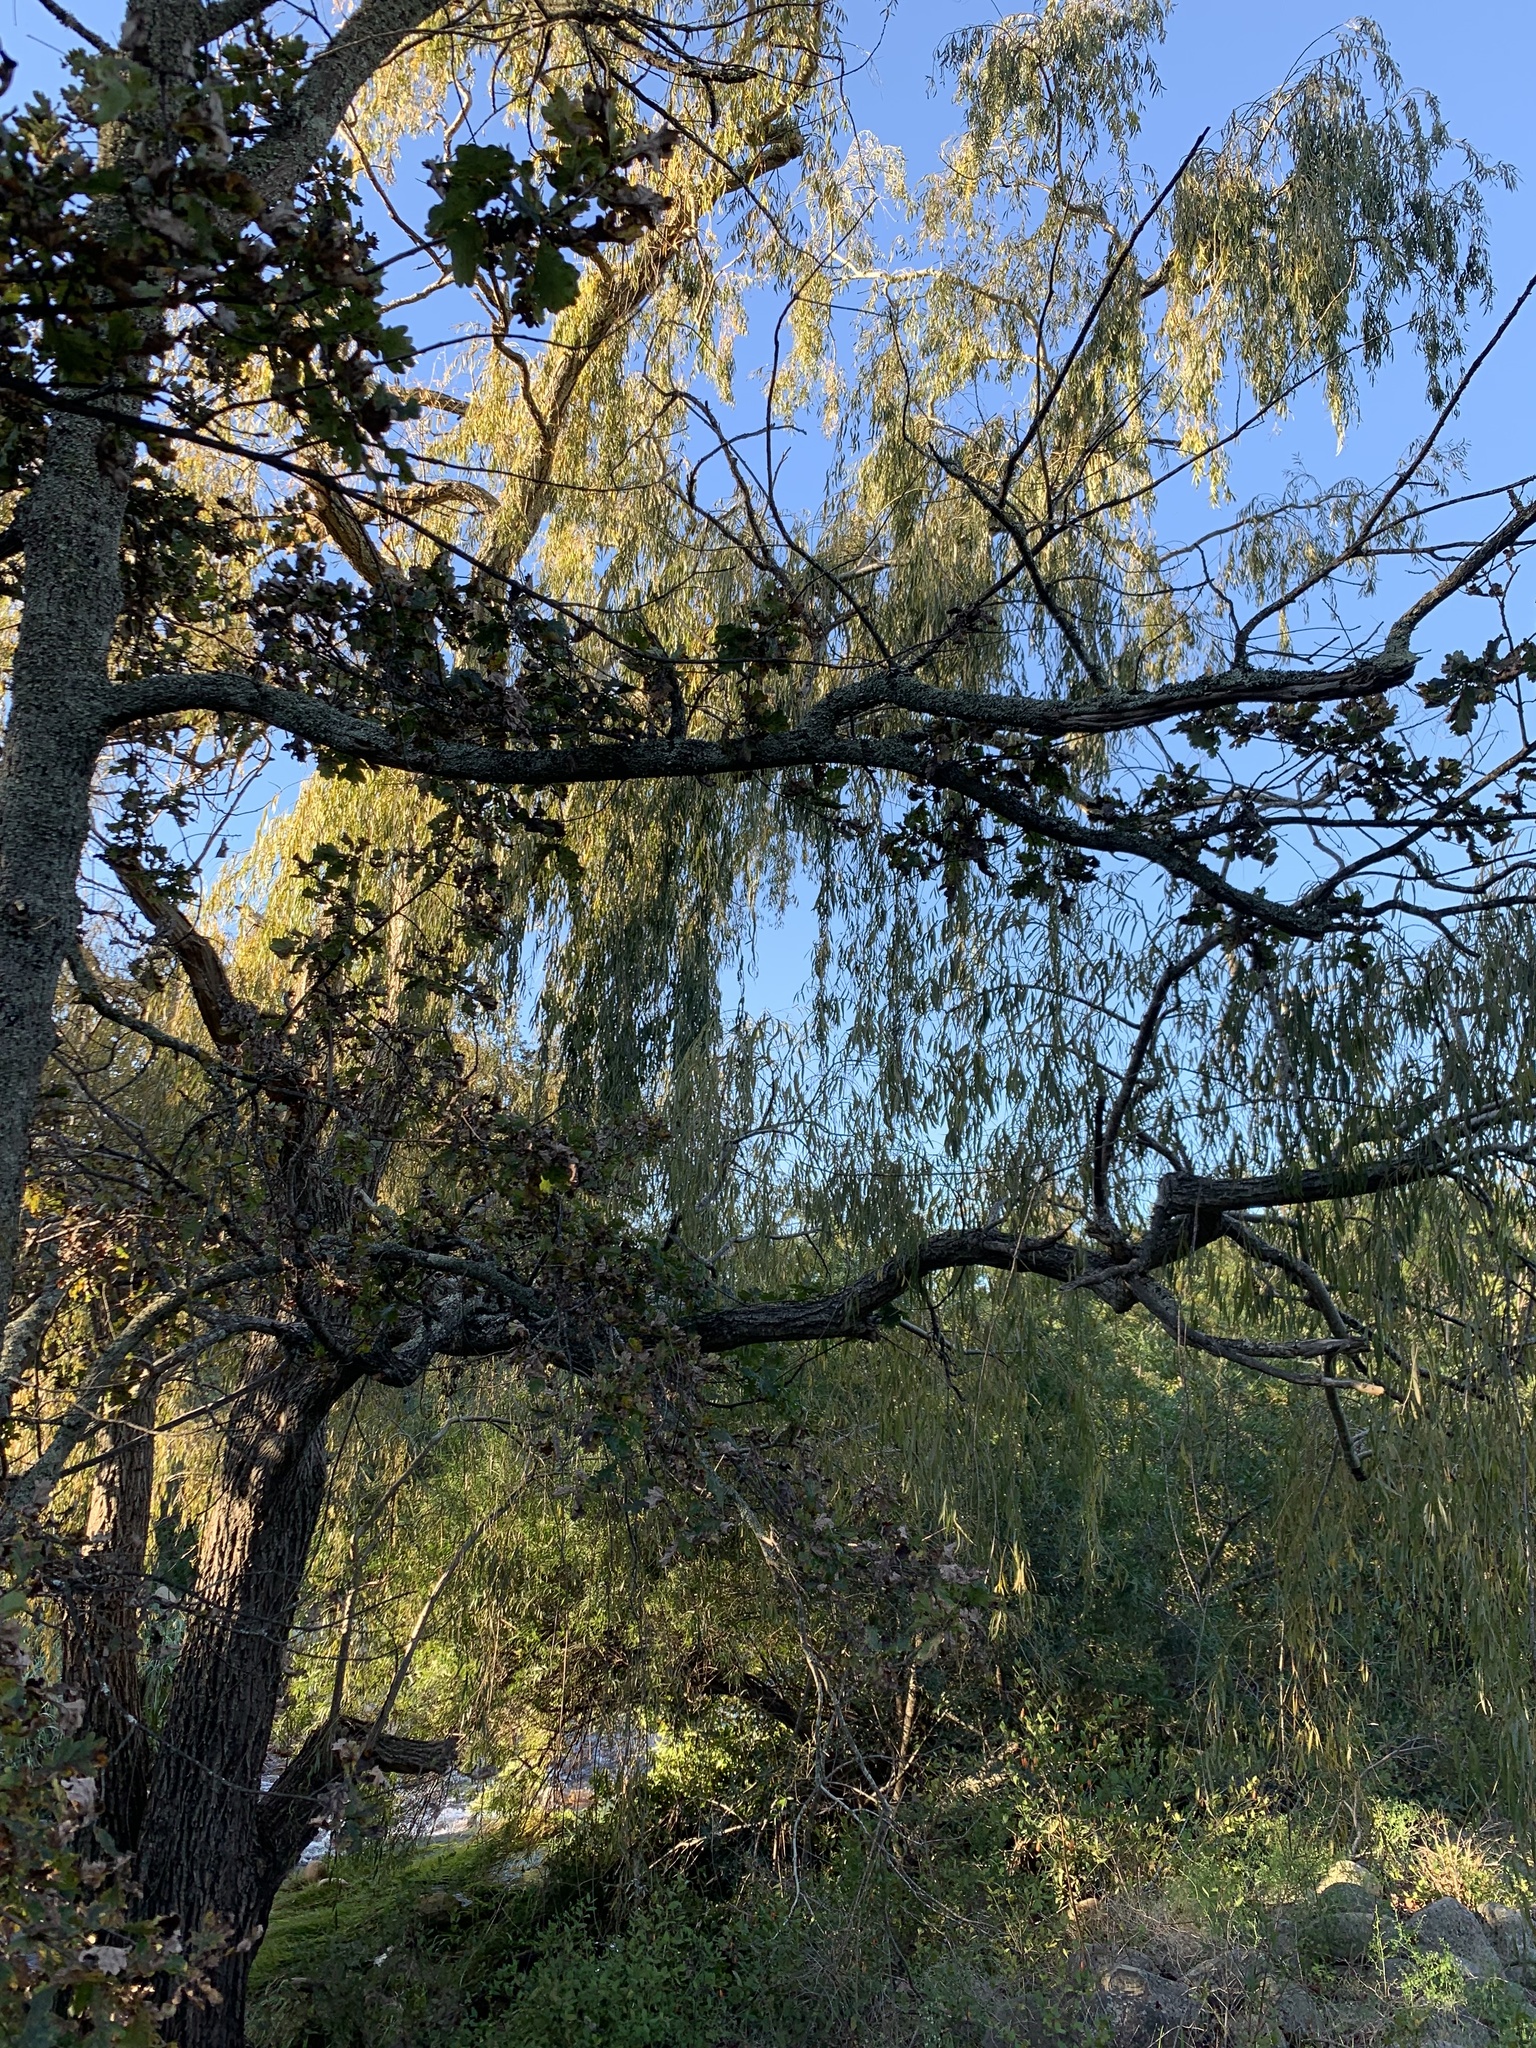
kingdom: Plantae
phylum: Tracheophyta
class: Magnoliopsida
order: Malpighiales
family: Salicaceae
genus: Salix
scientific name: Salix babylonica
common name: Weeping willow
